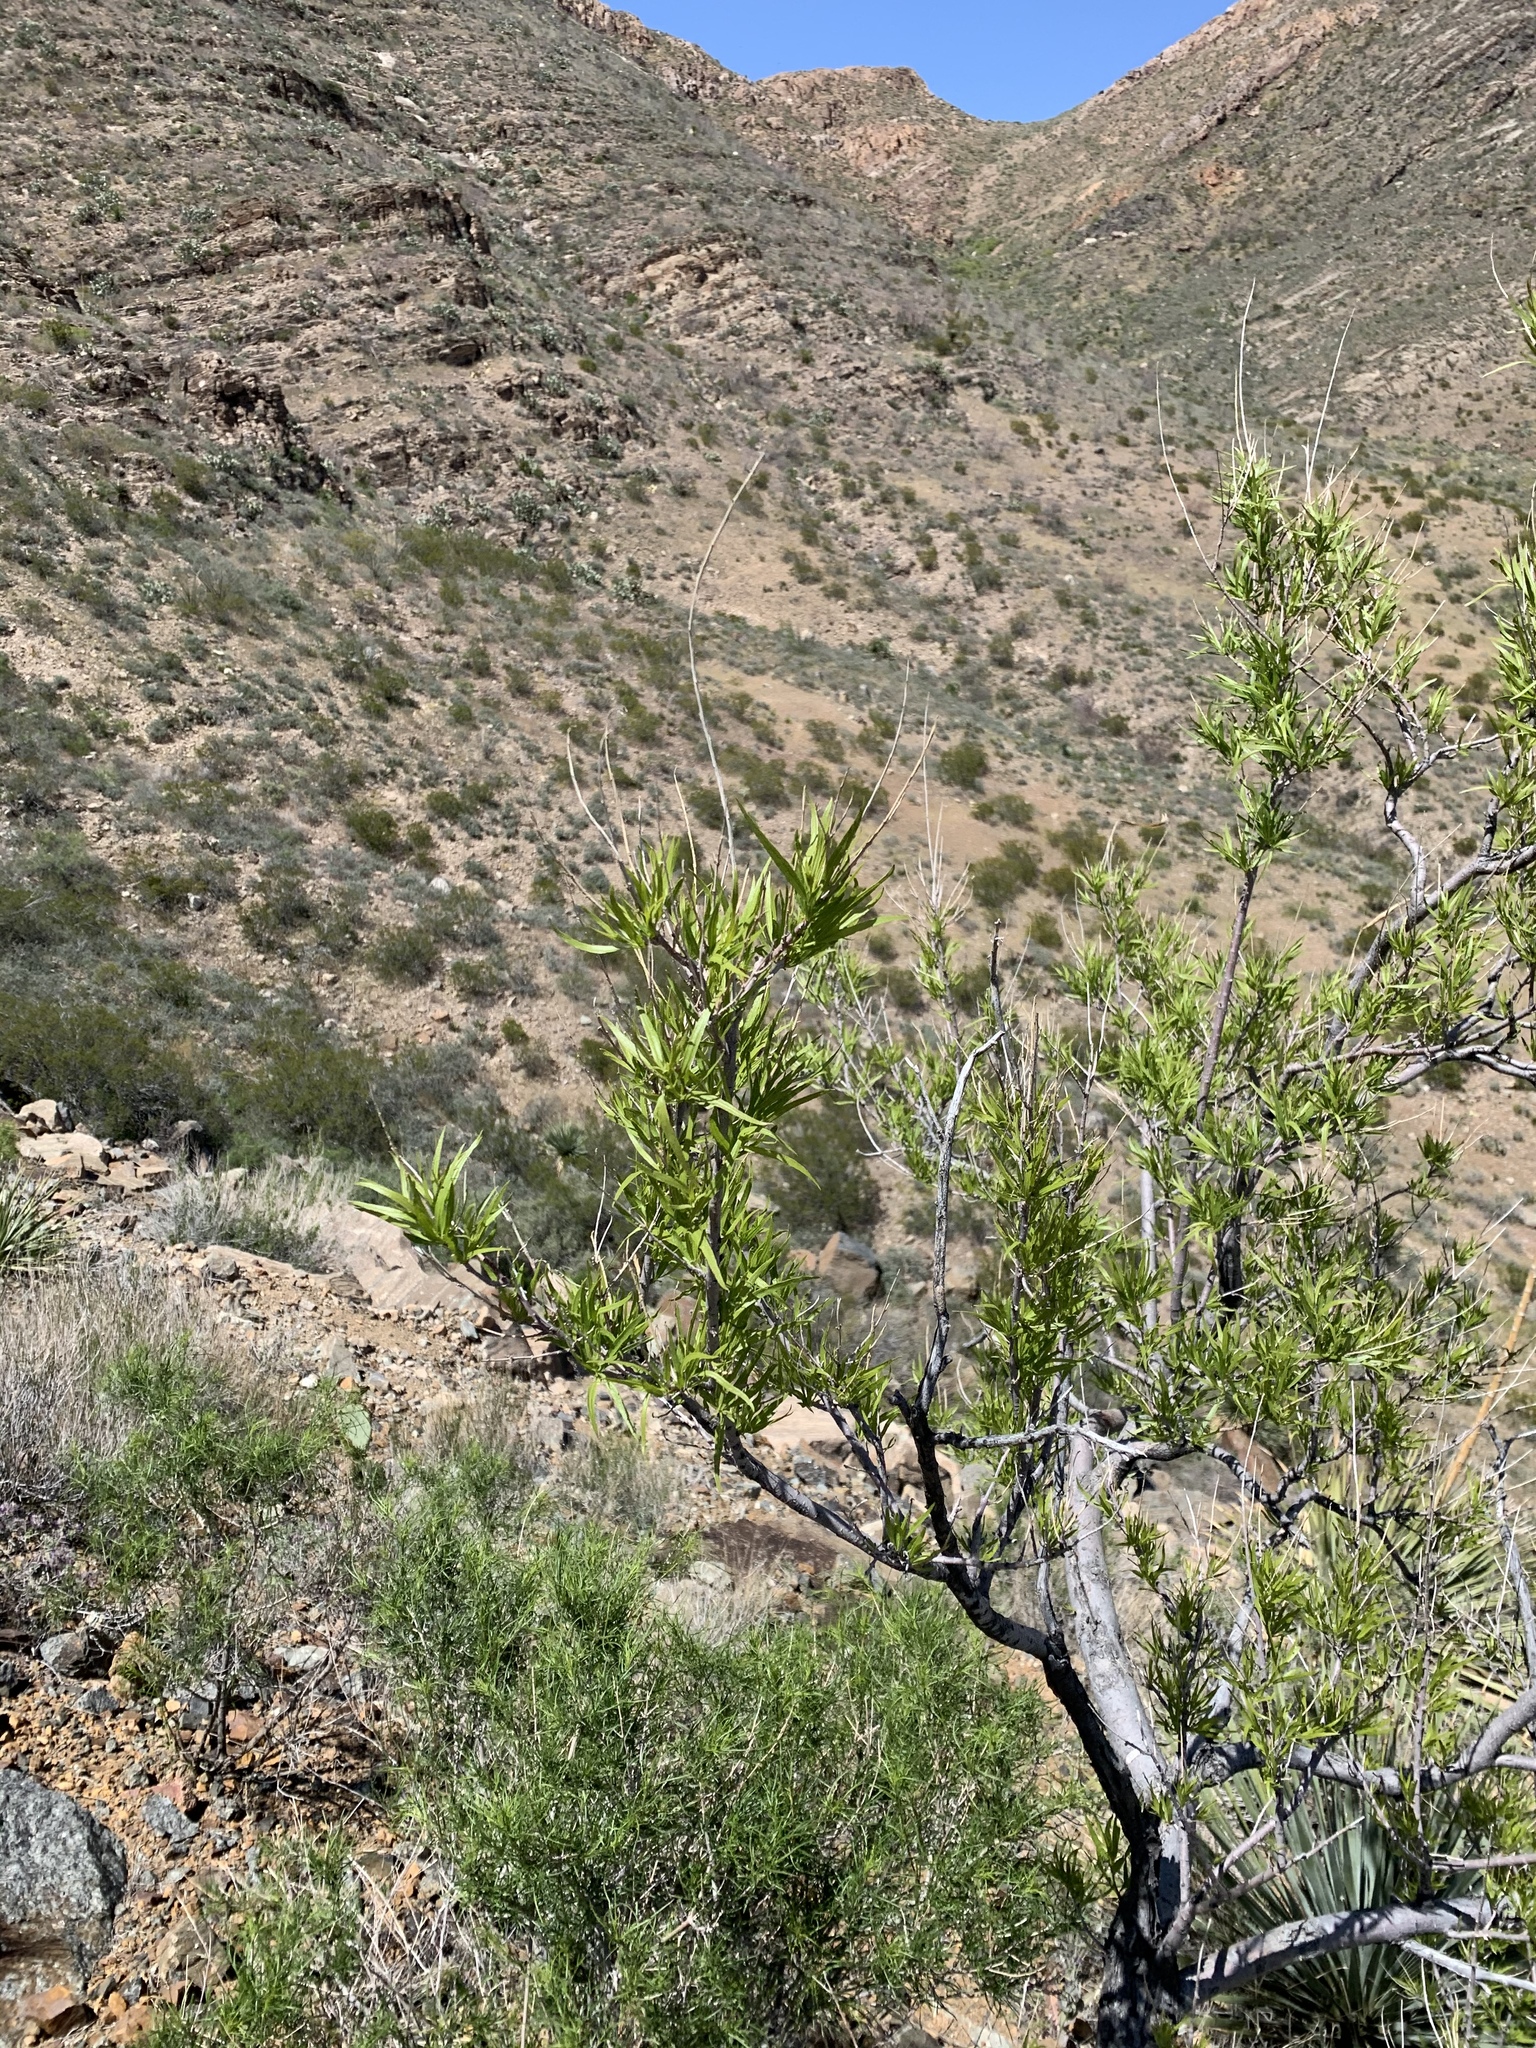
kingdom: Plantae
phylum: Tracheophyta
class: Magnoliopsida
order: Lamiales
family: Bignoniaceae
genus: Chilopsis
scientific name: Chilopsis linearis
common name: Desert-willow
